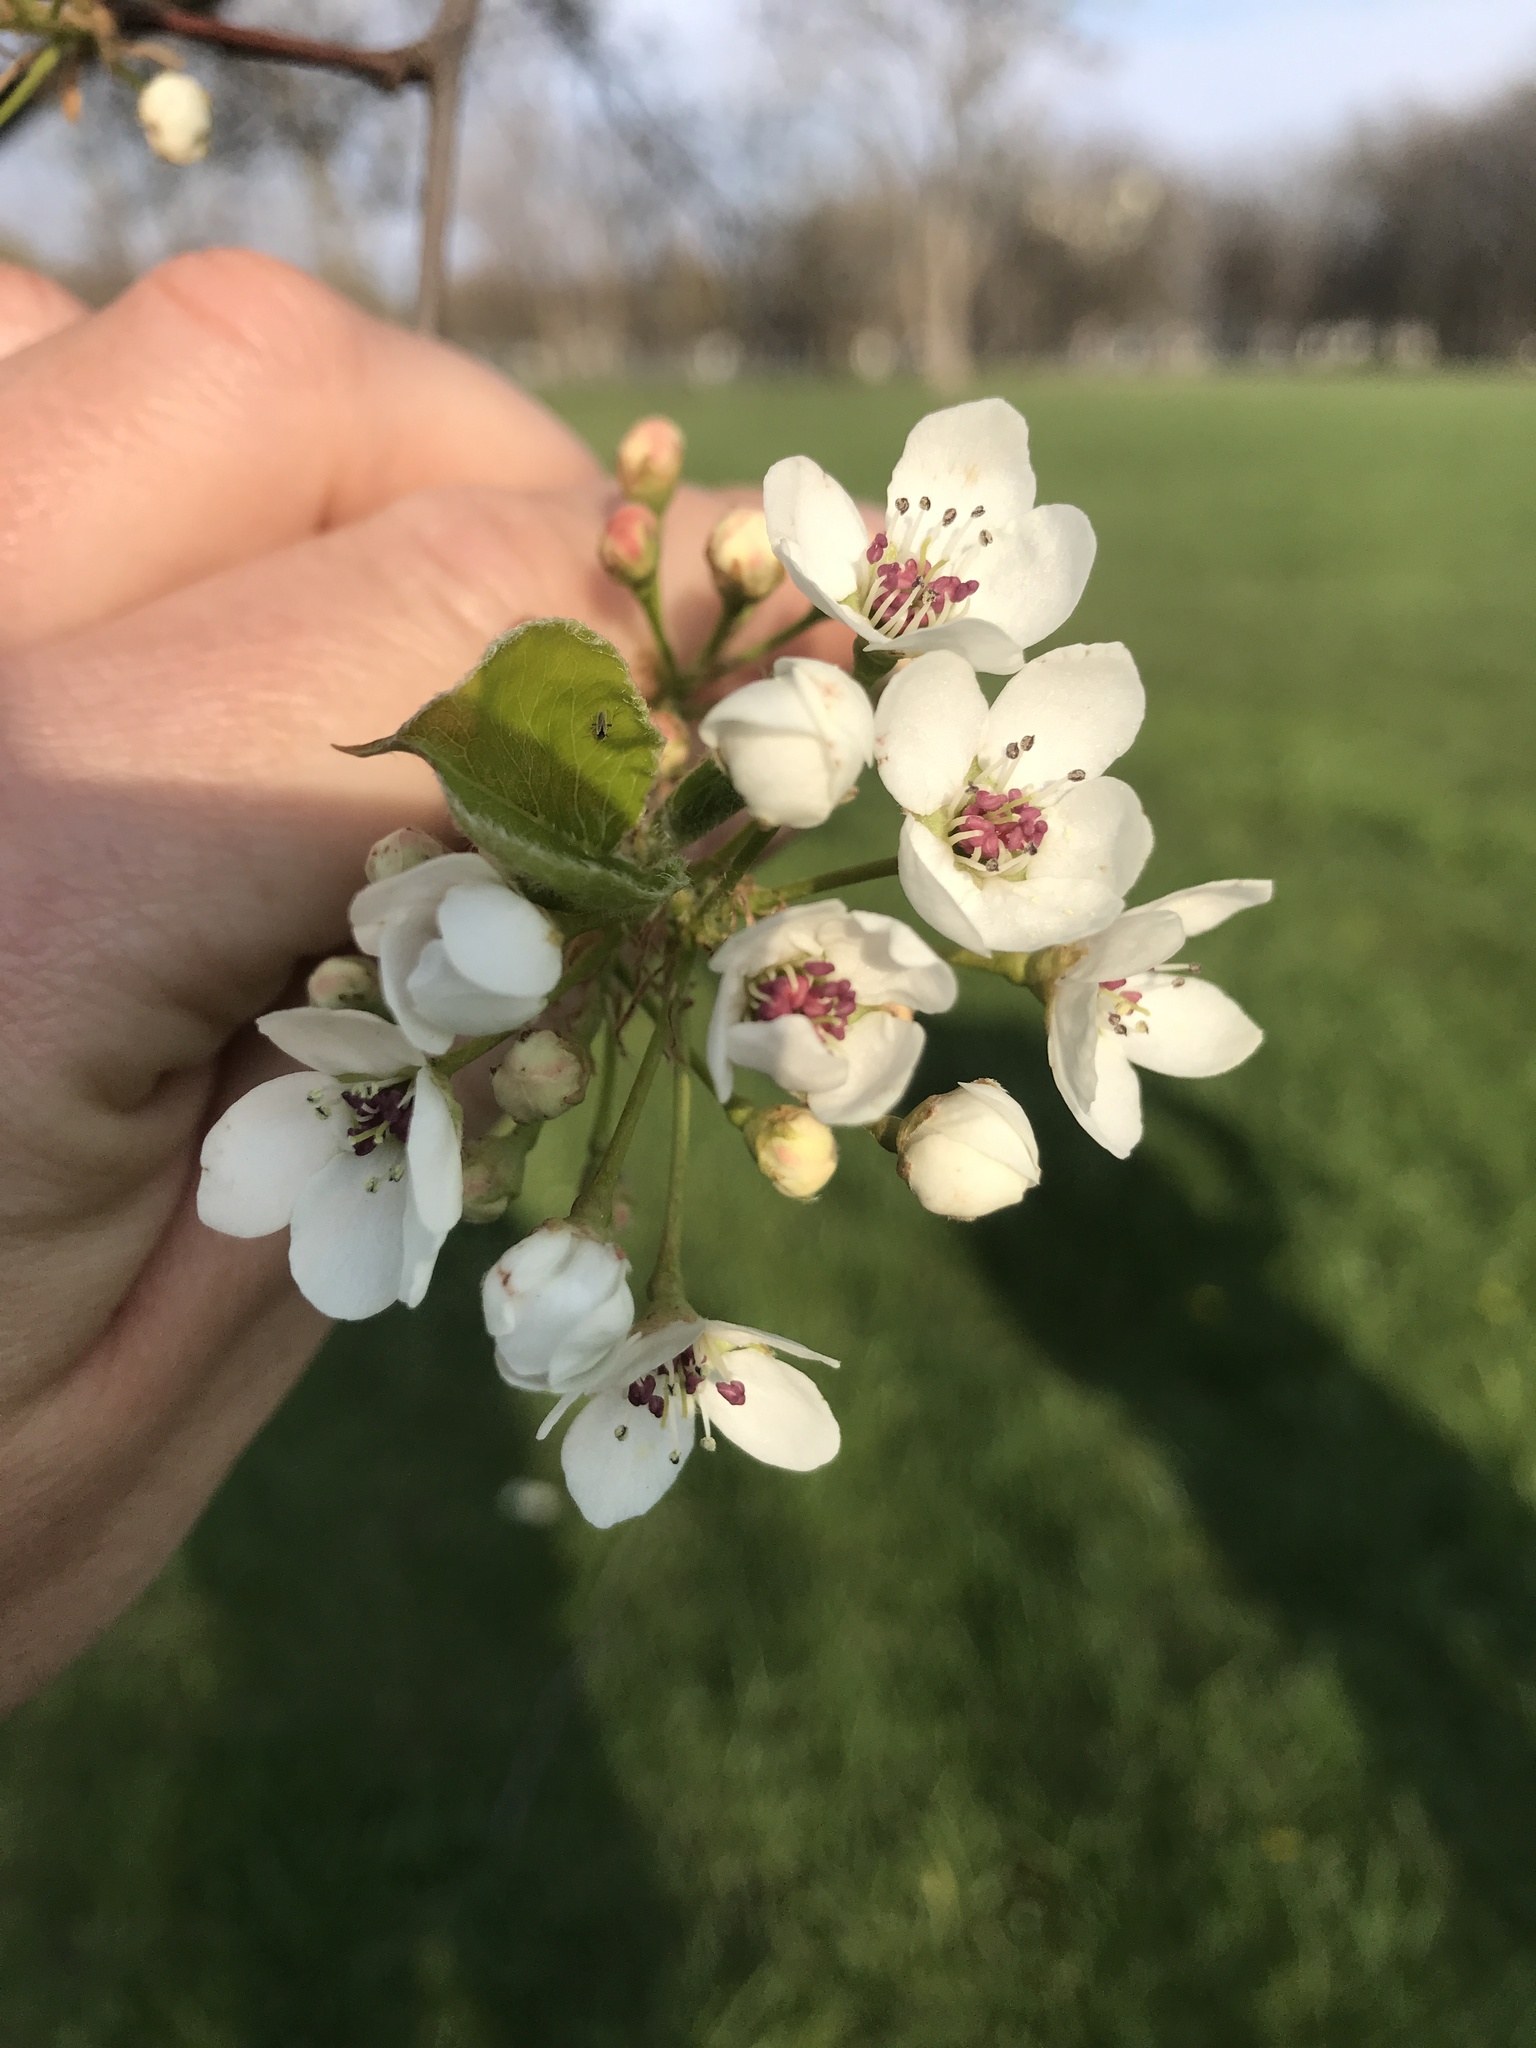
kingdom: Plantae
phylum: Tracheophyta
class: Magnoliopsida
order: Rosales
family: Rosaceae
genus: Pyrus
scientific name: Pyrus calleryana
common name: Callery pear
